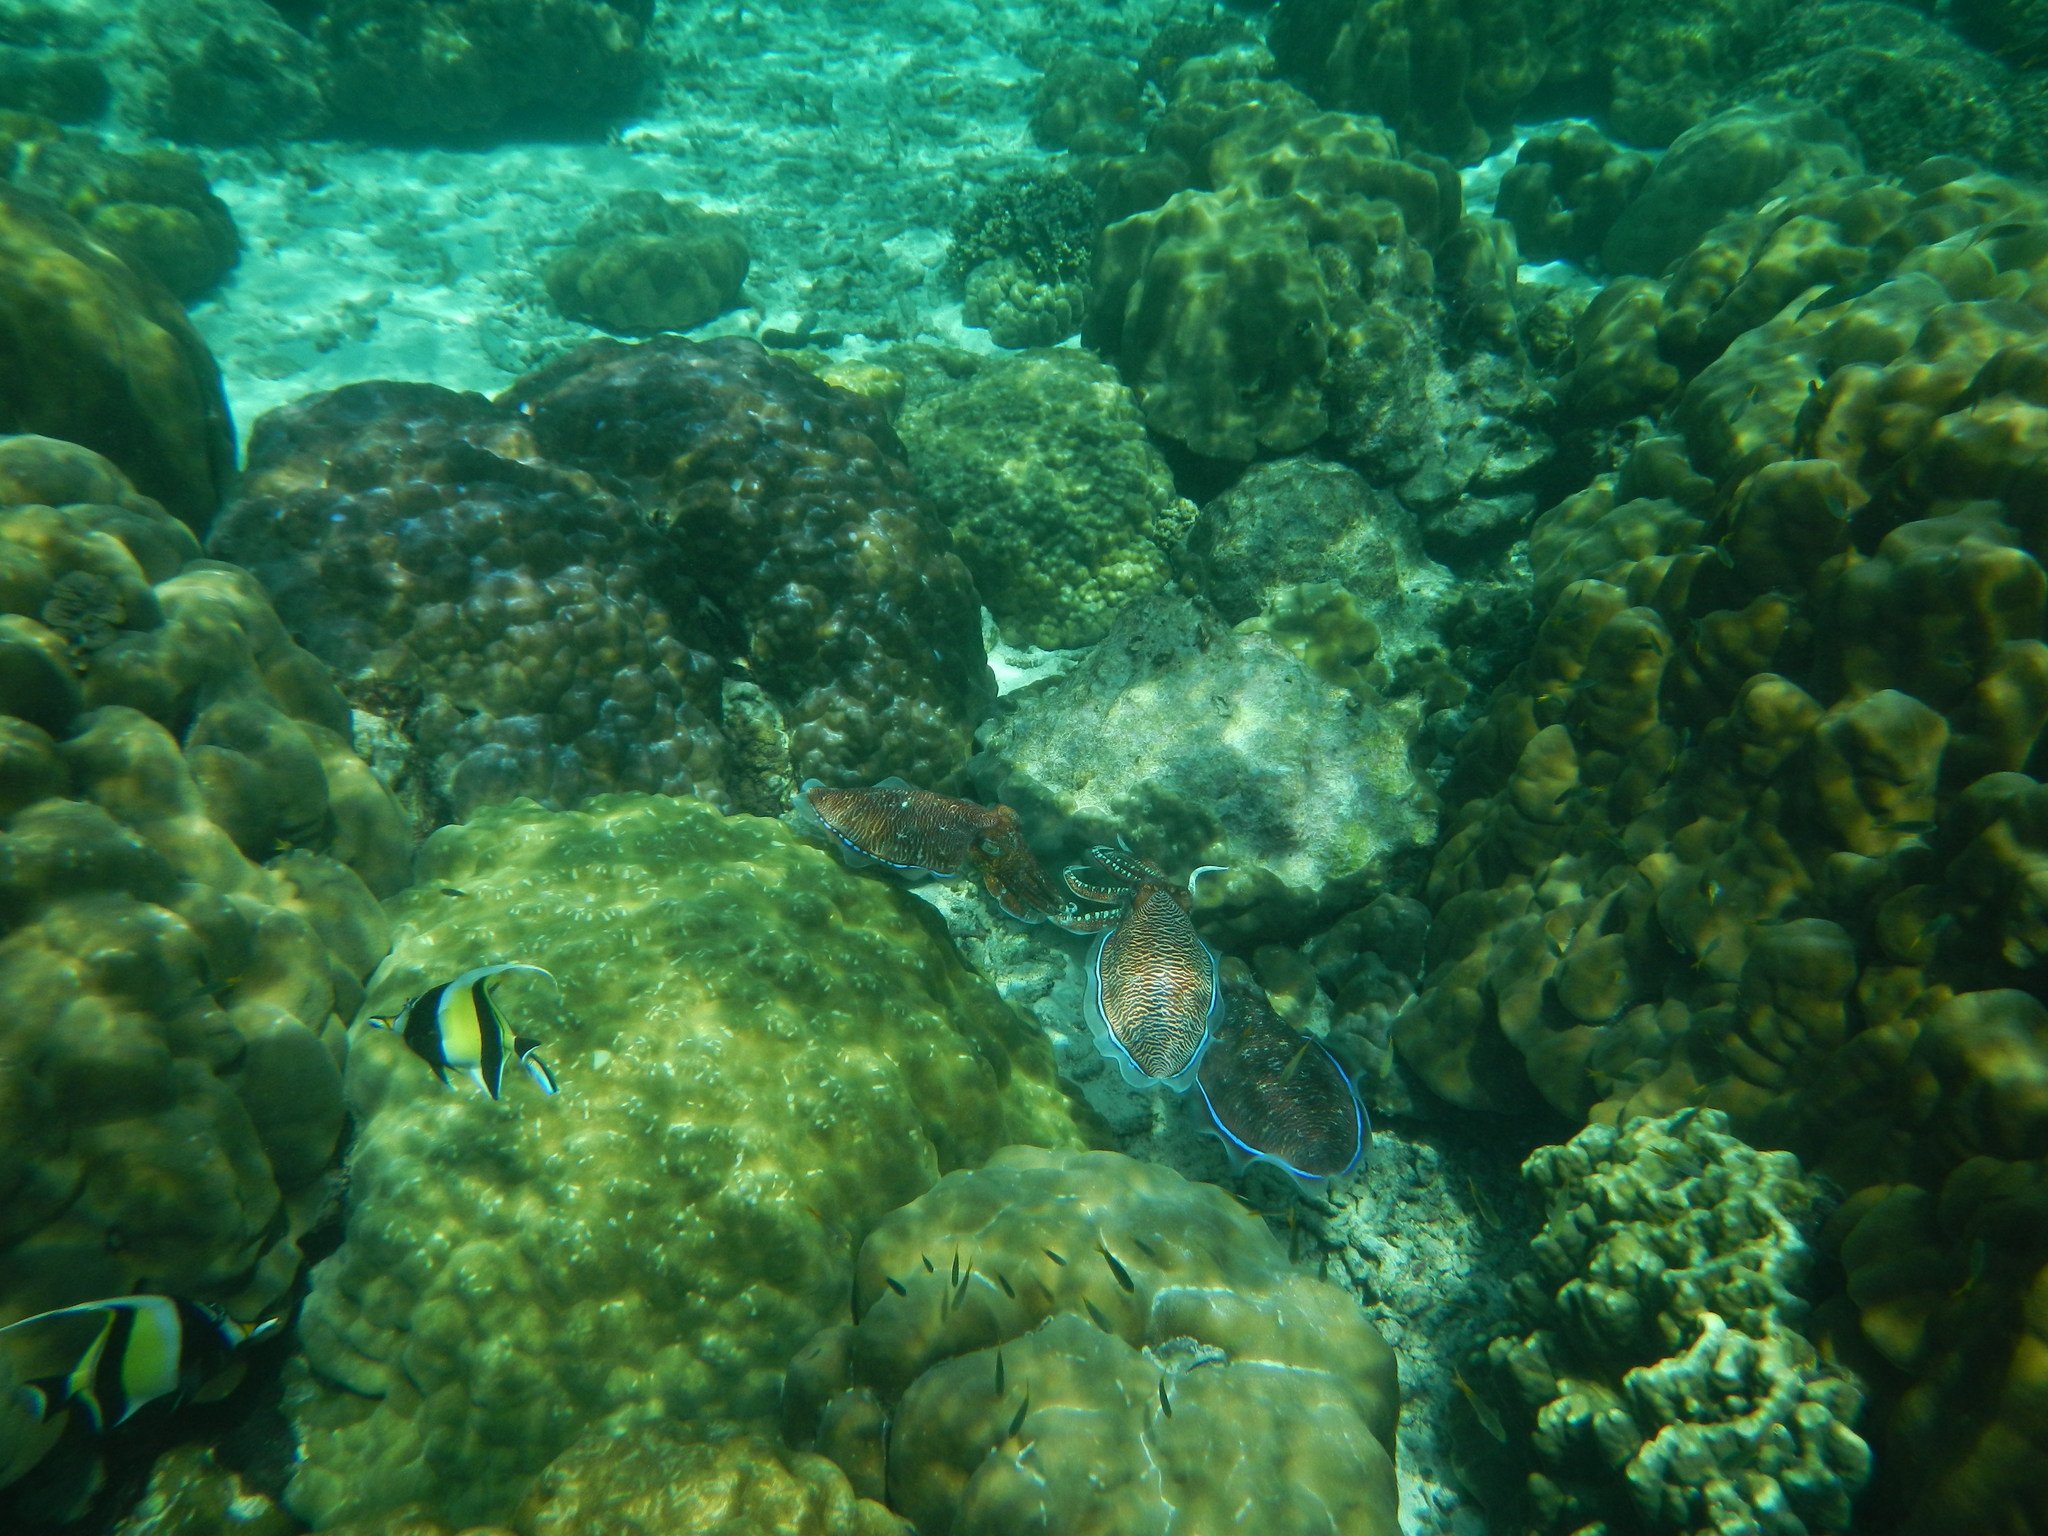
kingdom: Animalia
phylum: Mollusca
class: Cephalopoda
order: Sepiida
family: Sepiidae
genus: Acanthosepion
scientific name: Acanthosepion pharaonis
